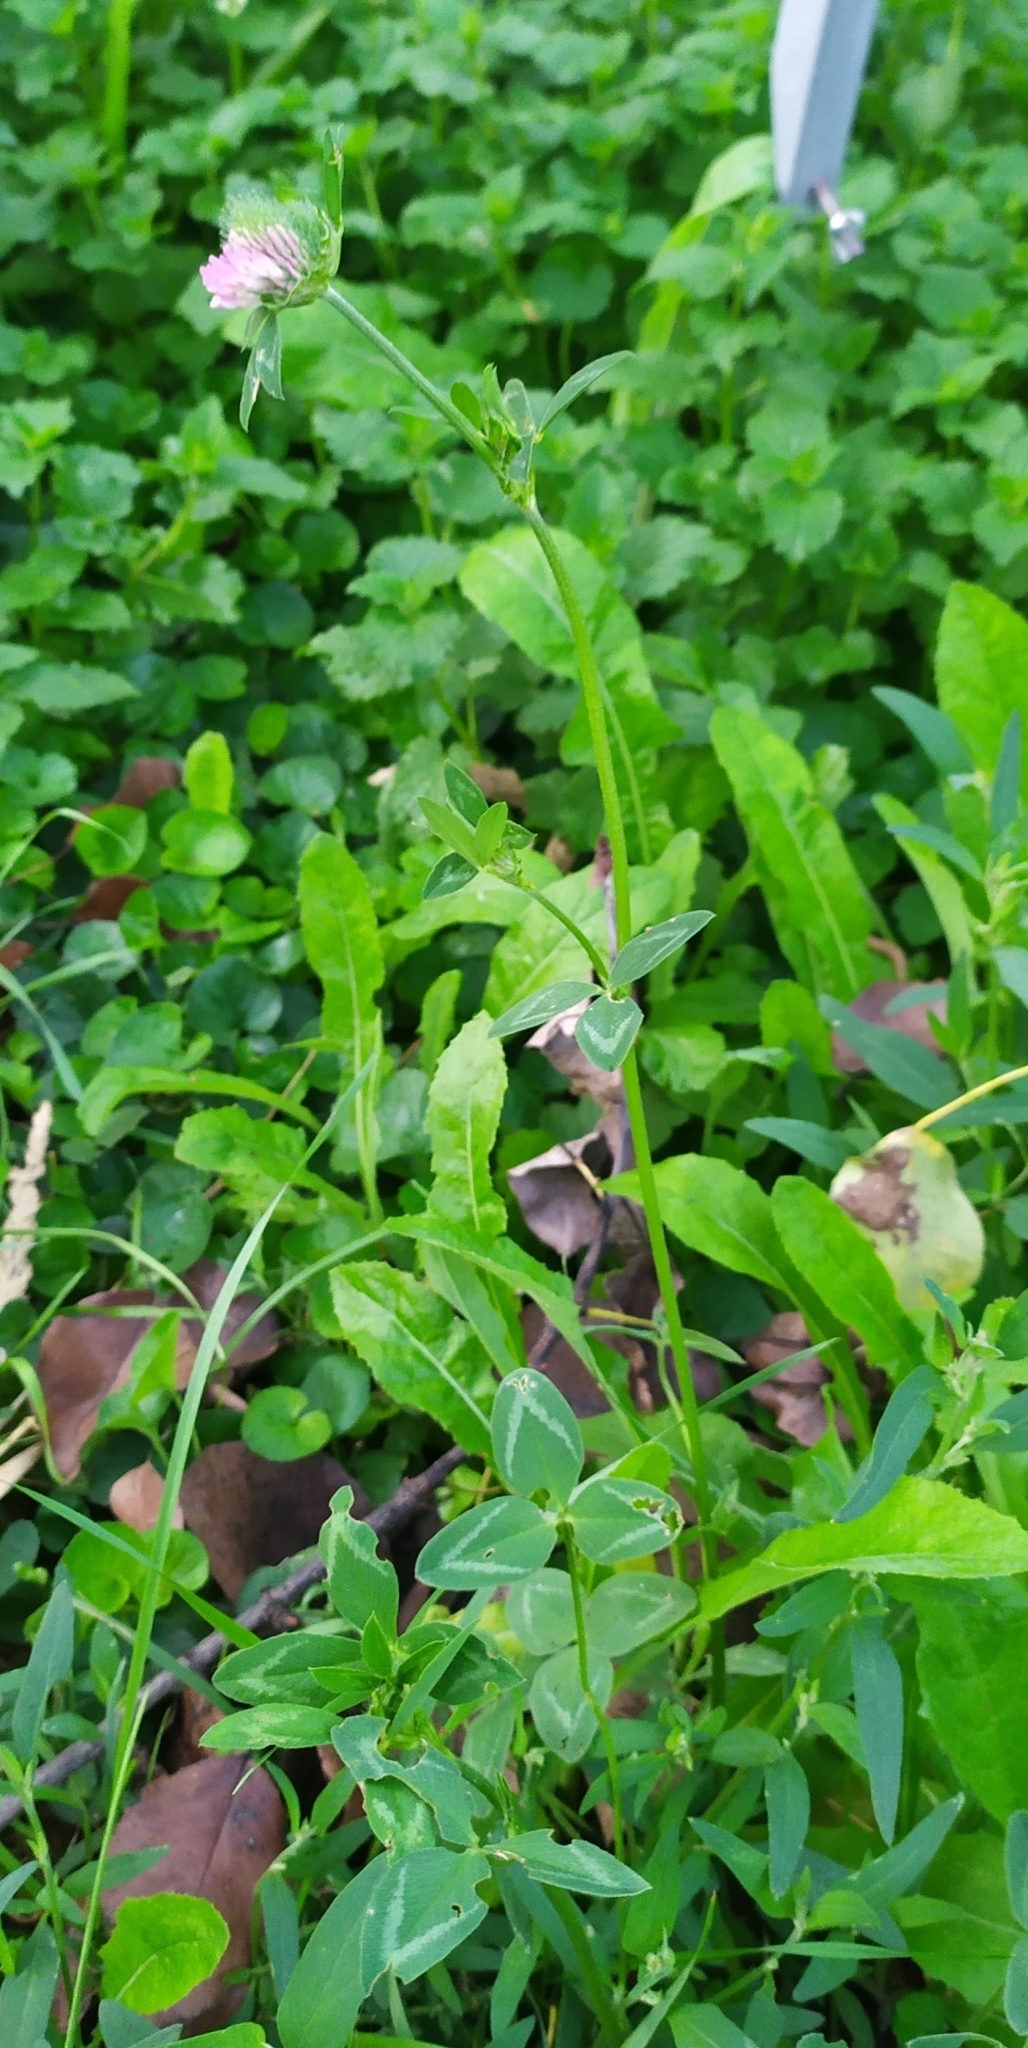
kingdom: Plantae
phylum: Tracheophyta
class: Magnoliopsida
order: Fabales
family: Fabaceae
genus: Trifolium
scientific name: Trifolium pratense
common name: Red clover
